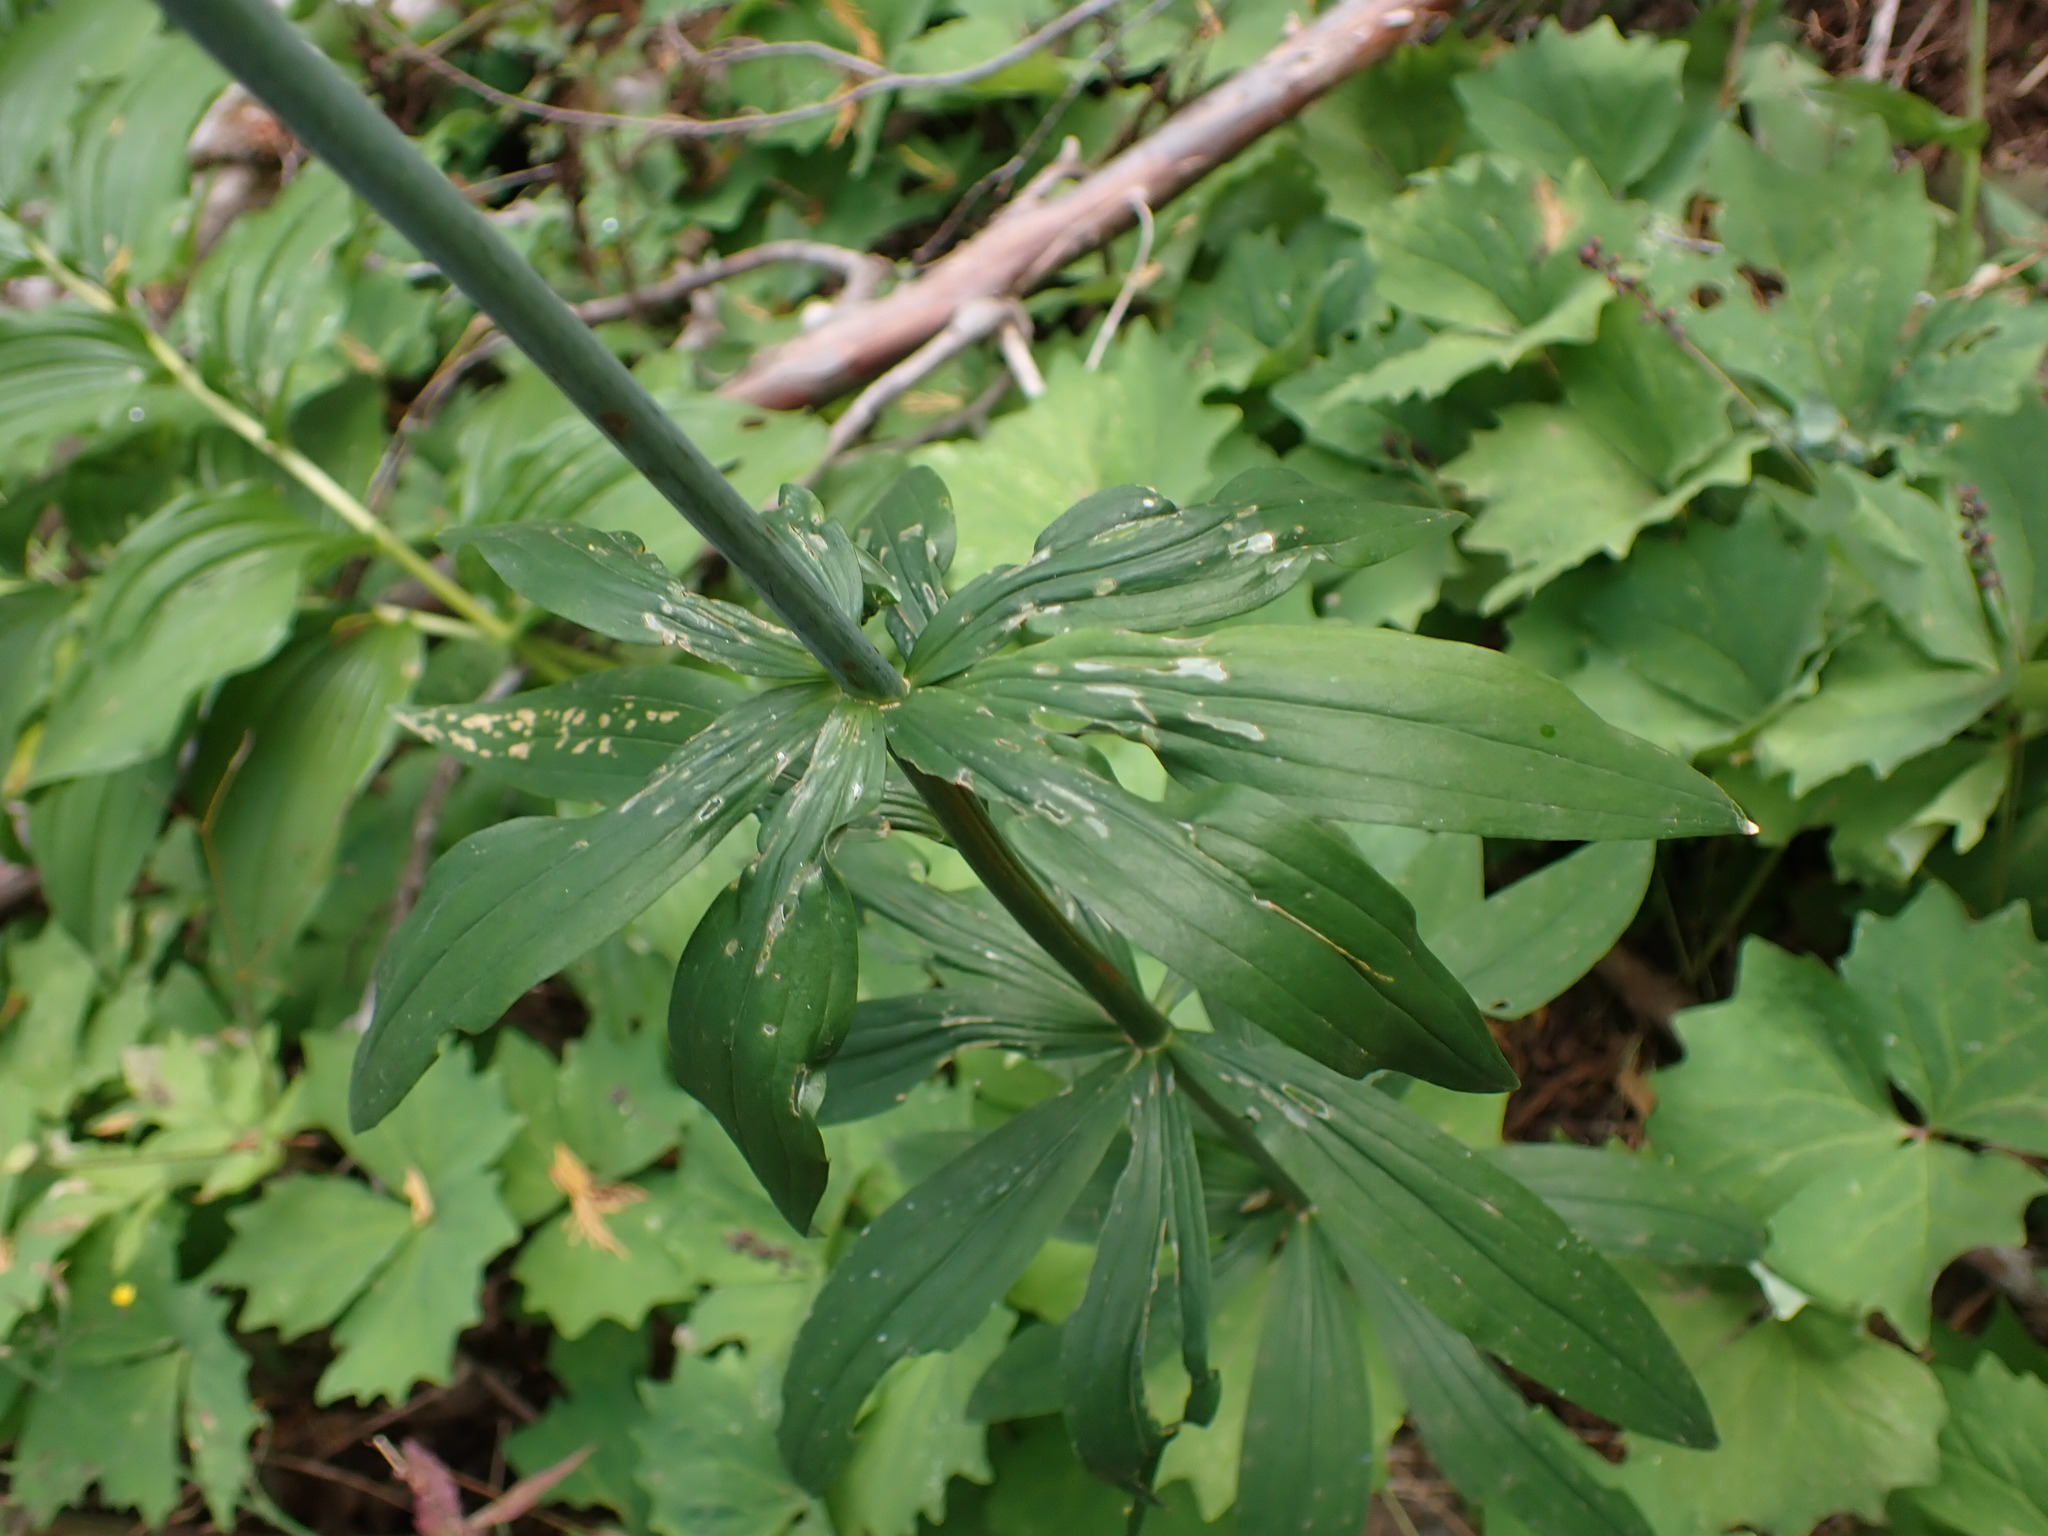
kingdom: Plantae
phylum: Tracheophyta
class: Liliopsida
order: Liliales
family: Liliaceae
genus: Lilium
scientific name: Lilium columbianum
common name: Columbia lily
